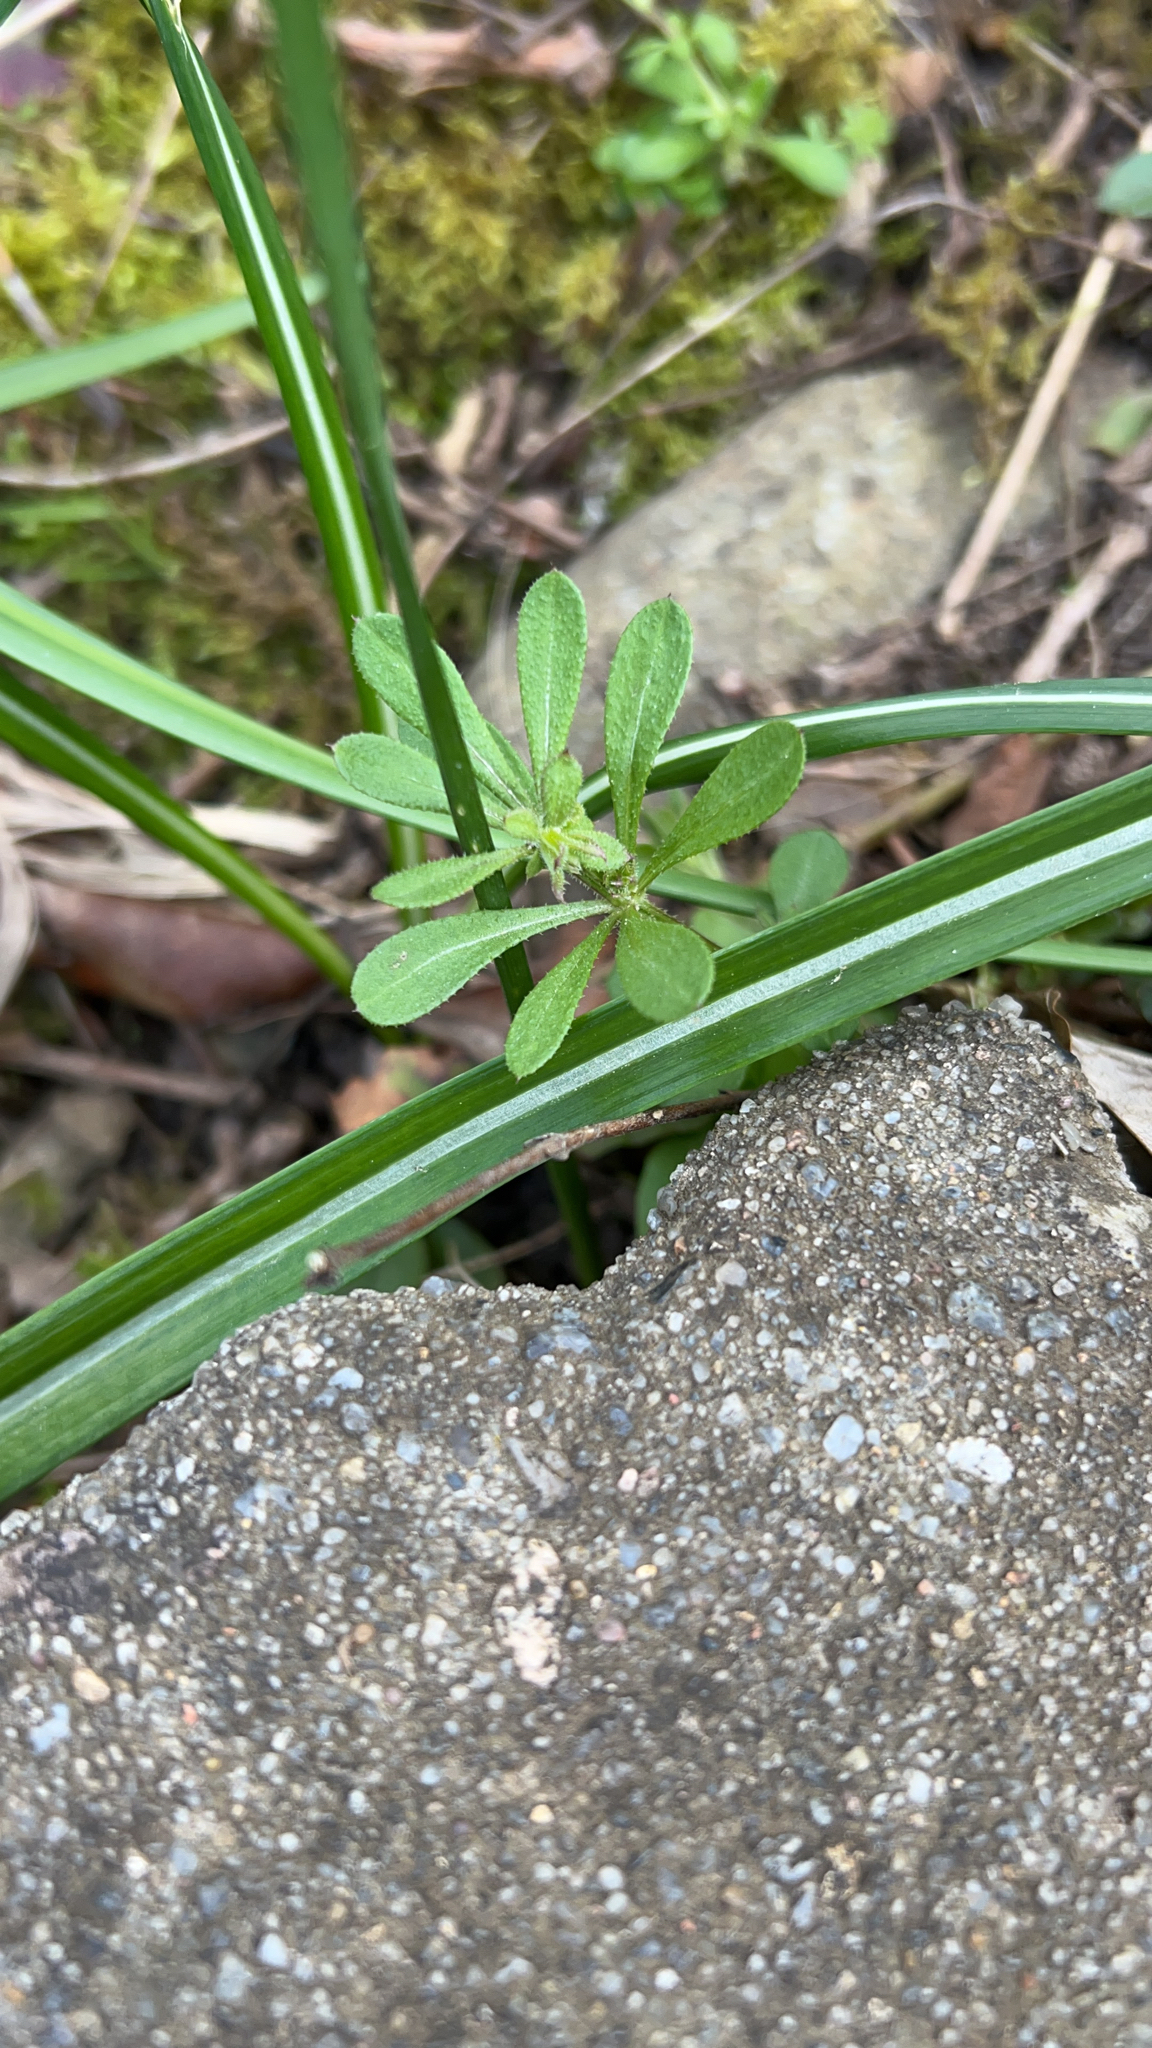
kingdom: Plantae
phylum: Tracheophyta
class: Magnoliopsida
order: Gentianales
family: Rubiaceae
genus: Galium
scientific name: Galium aparine
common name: Cleavers
